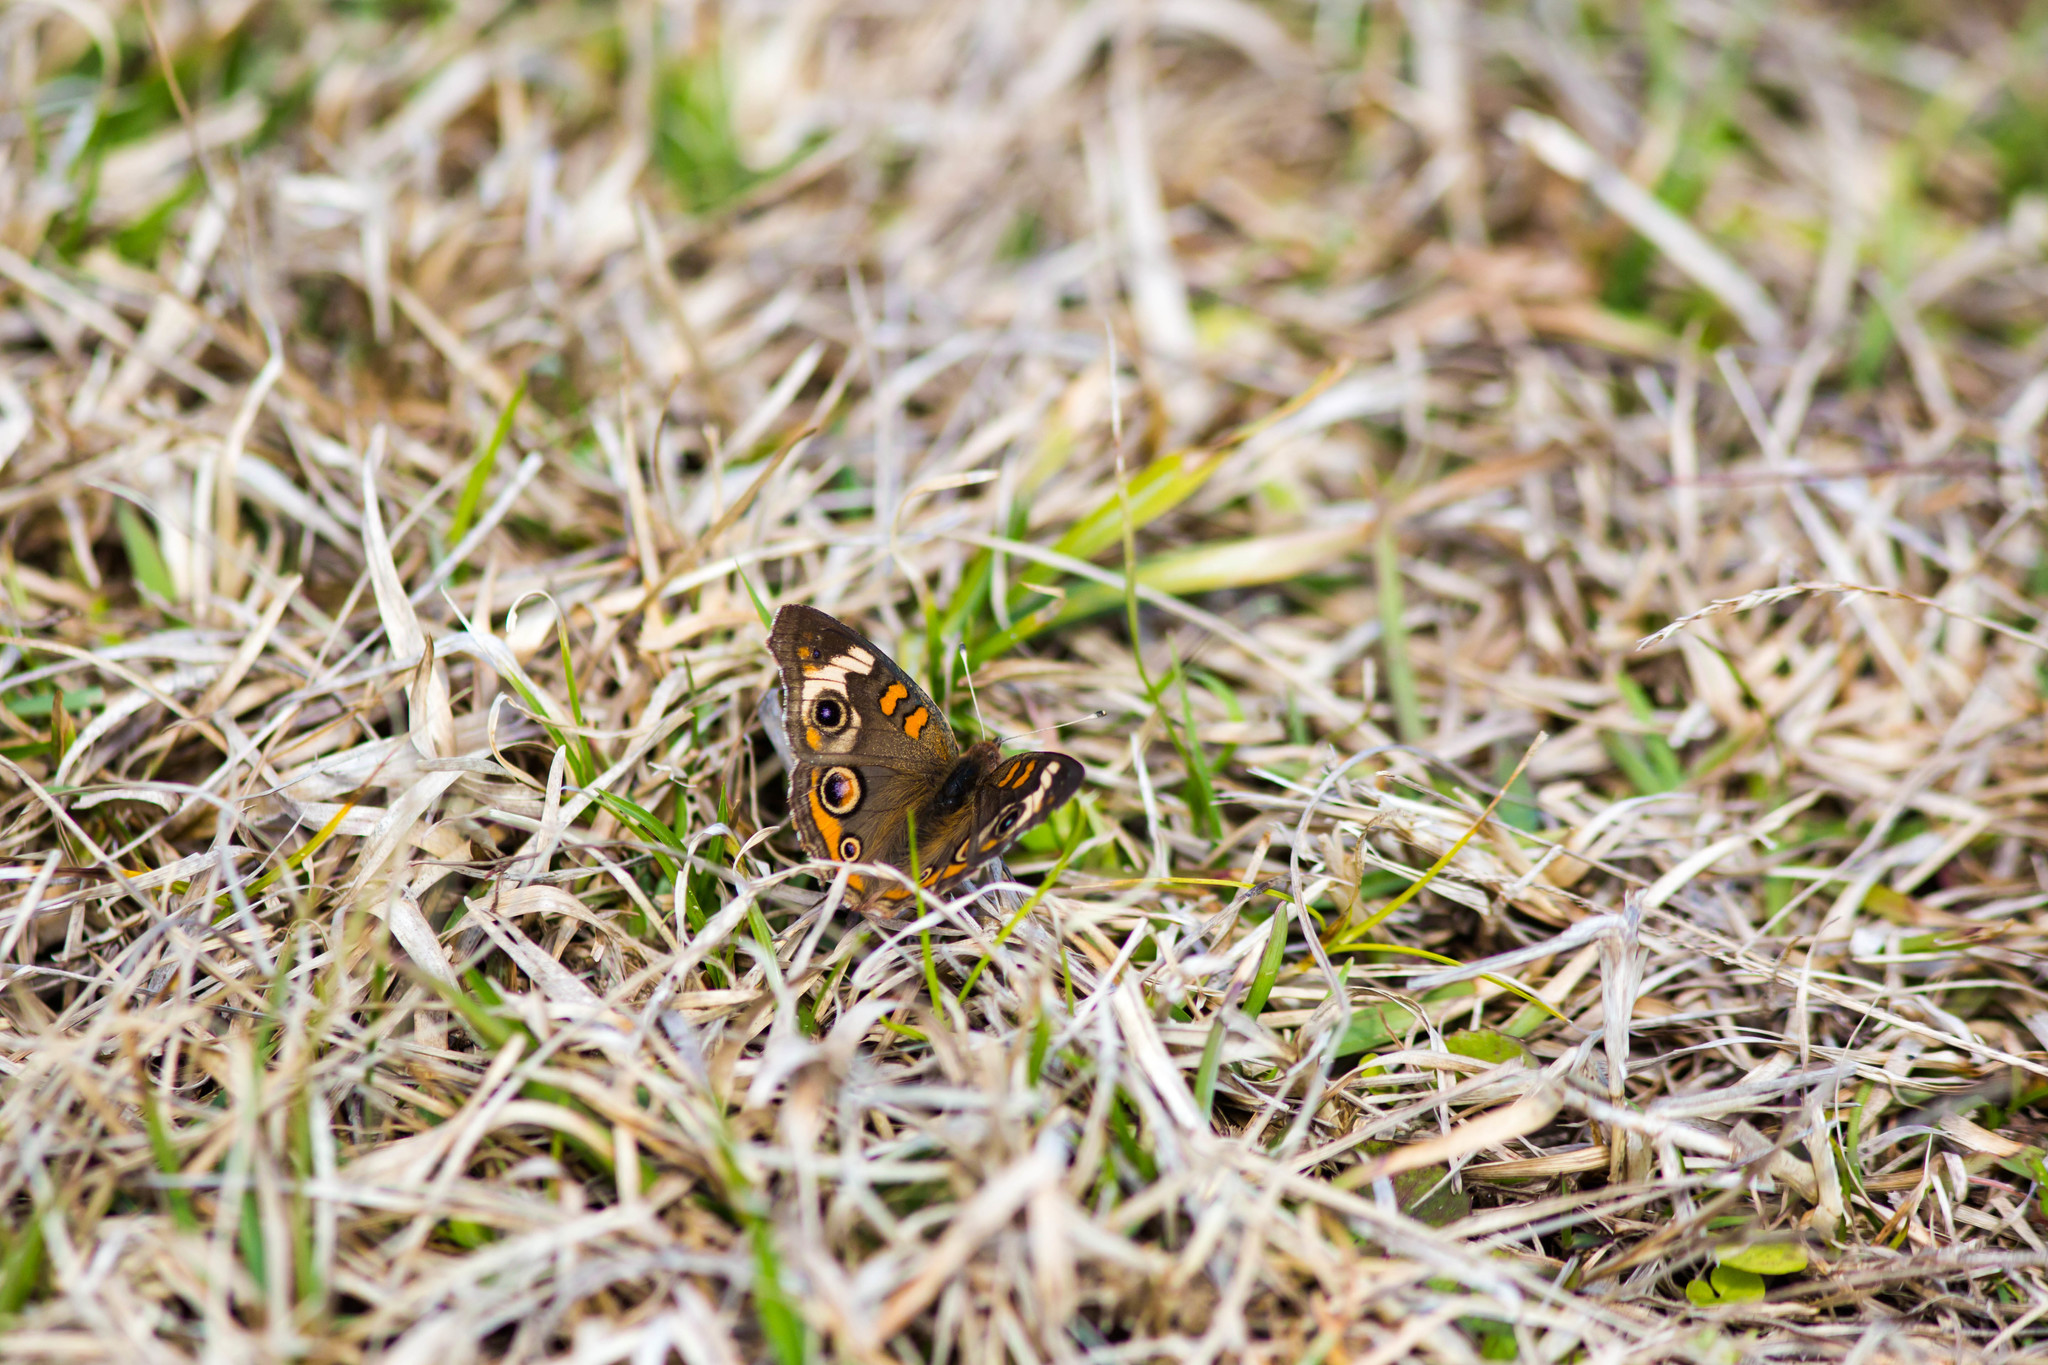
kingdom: Animalia
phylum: Arthropoda
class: Insecta
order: Lepidoptera
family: Nymphalidae
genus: Junonia
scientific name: Junonia coenia
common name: Common buckeye
